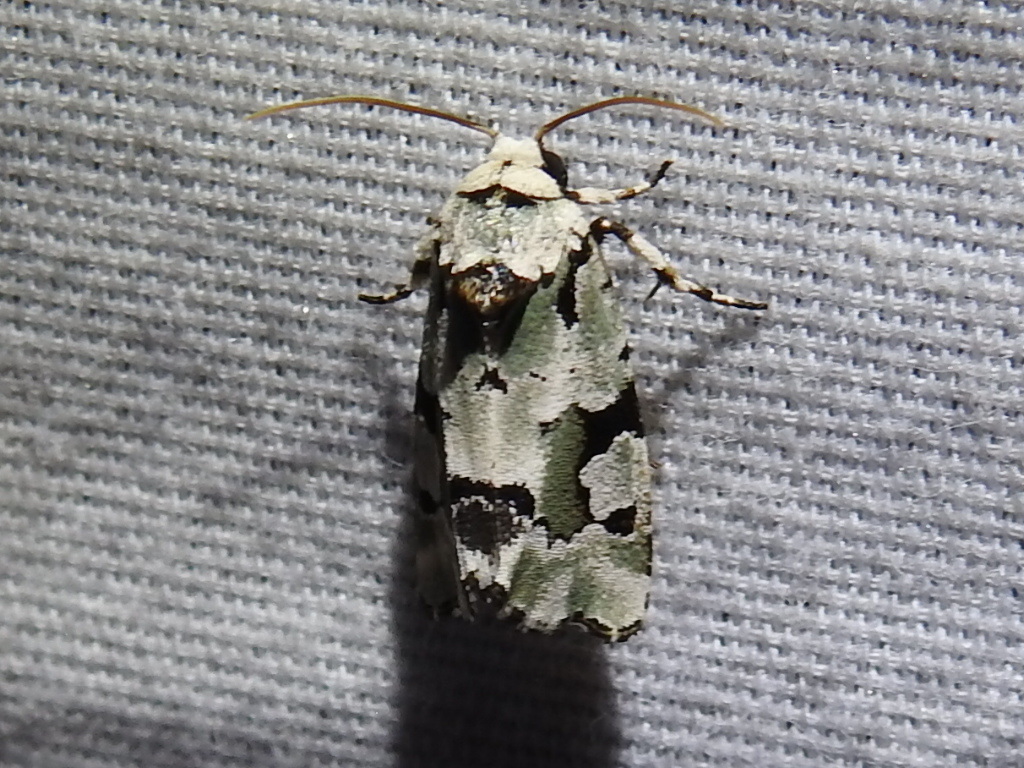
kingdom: Animalia
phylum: Arthropoda
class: Insecta
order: Lepidoptera
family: Noctuidae
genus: Emarginea
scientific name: Emarginea percara
